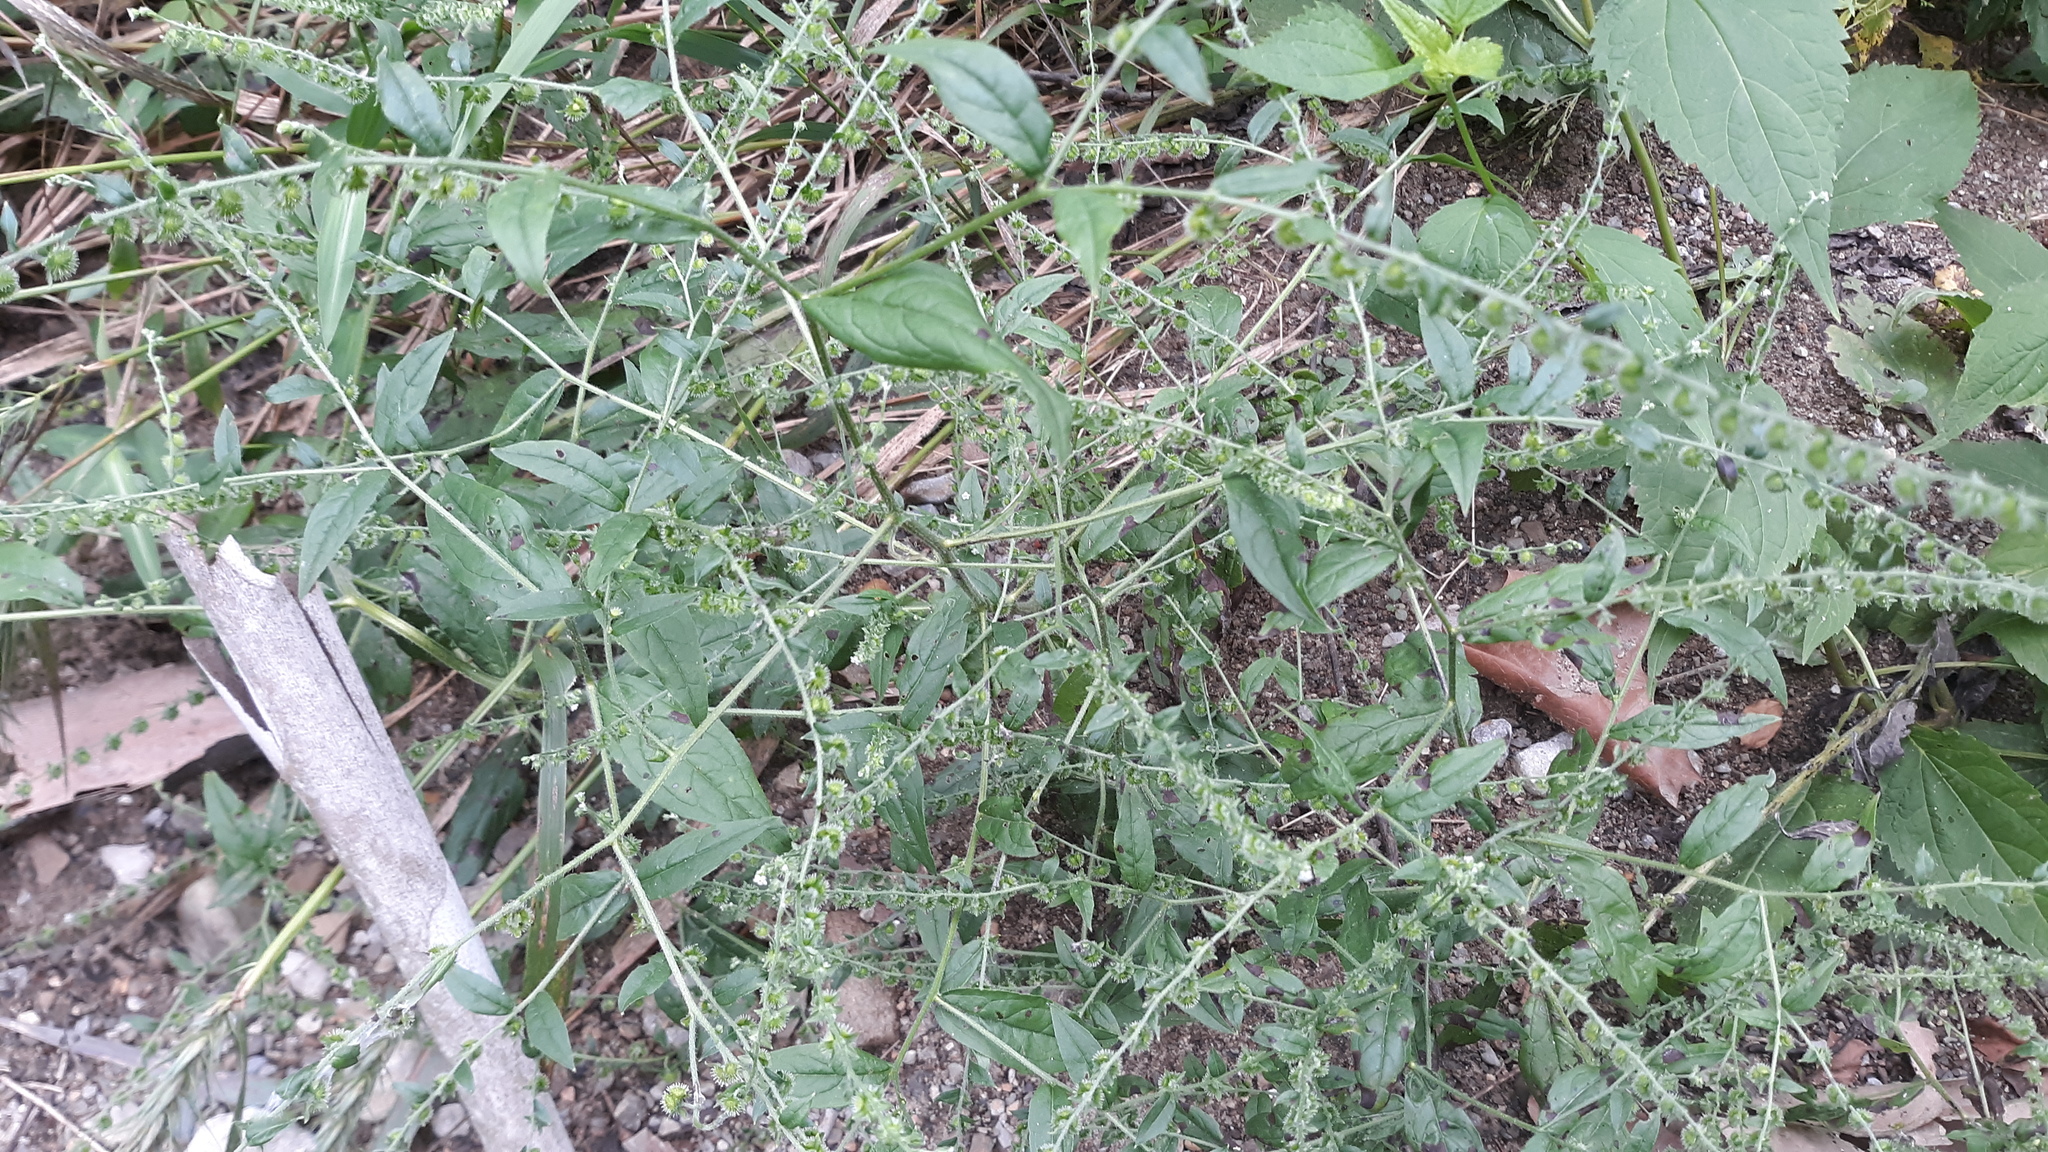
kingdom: Plantae
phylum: Tracheophyta
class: Magnoliopsida
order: Boraginales
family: Boraginaceae
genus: Hackelia
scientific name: Hackelia virginiana
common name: Beggar's-lice
